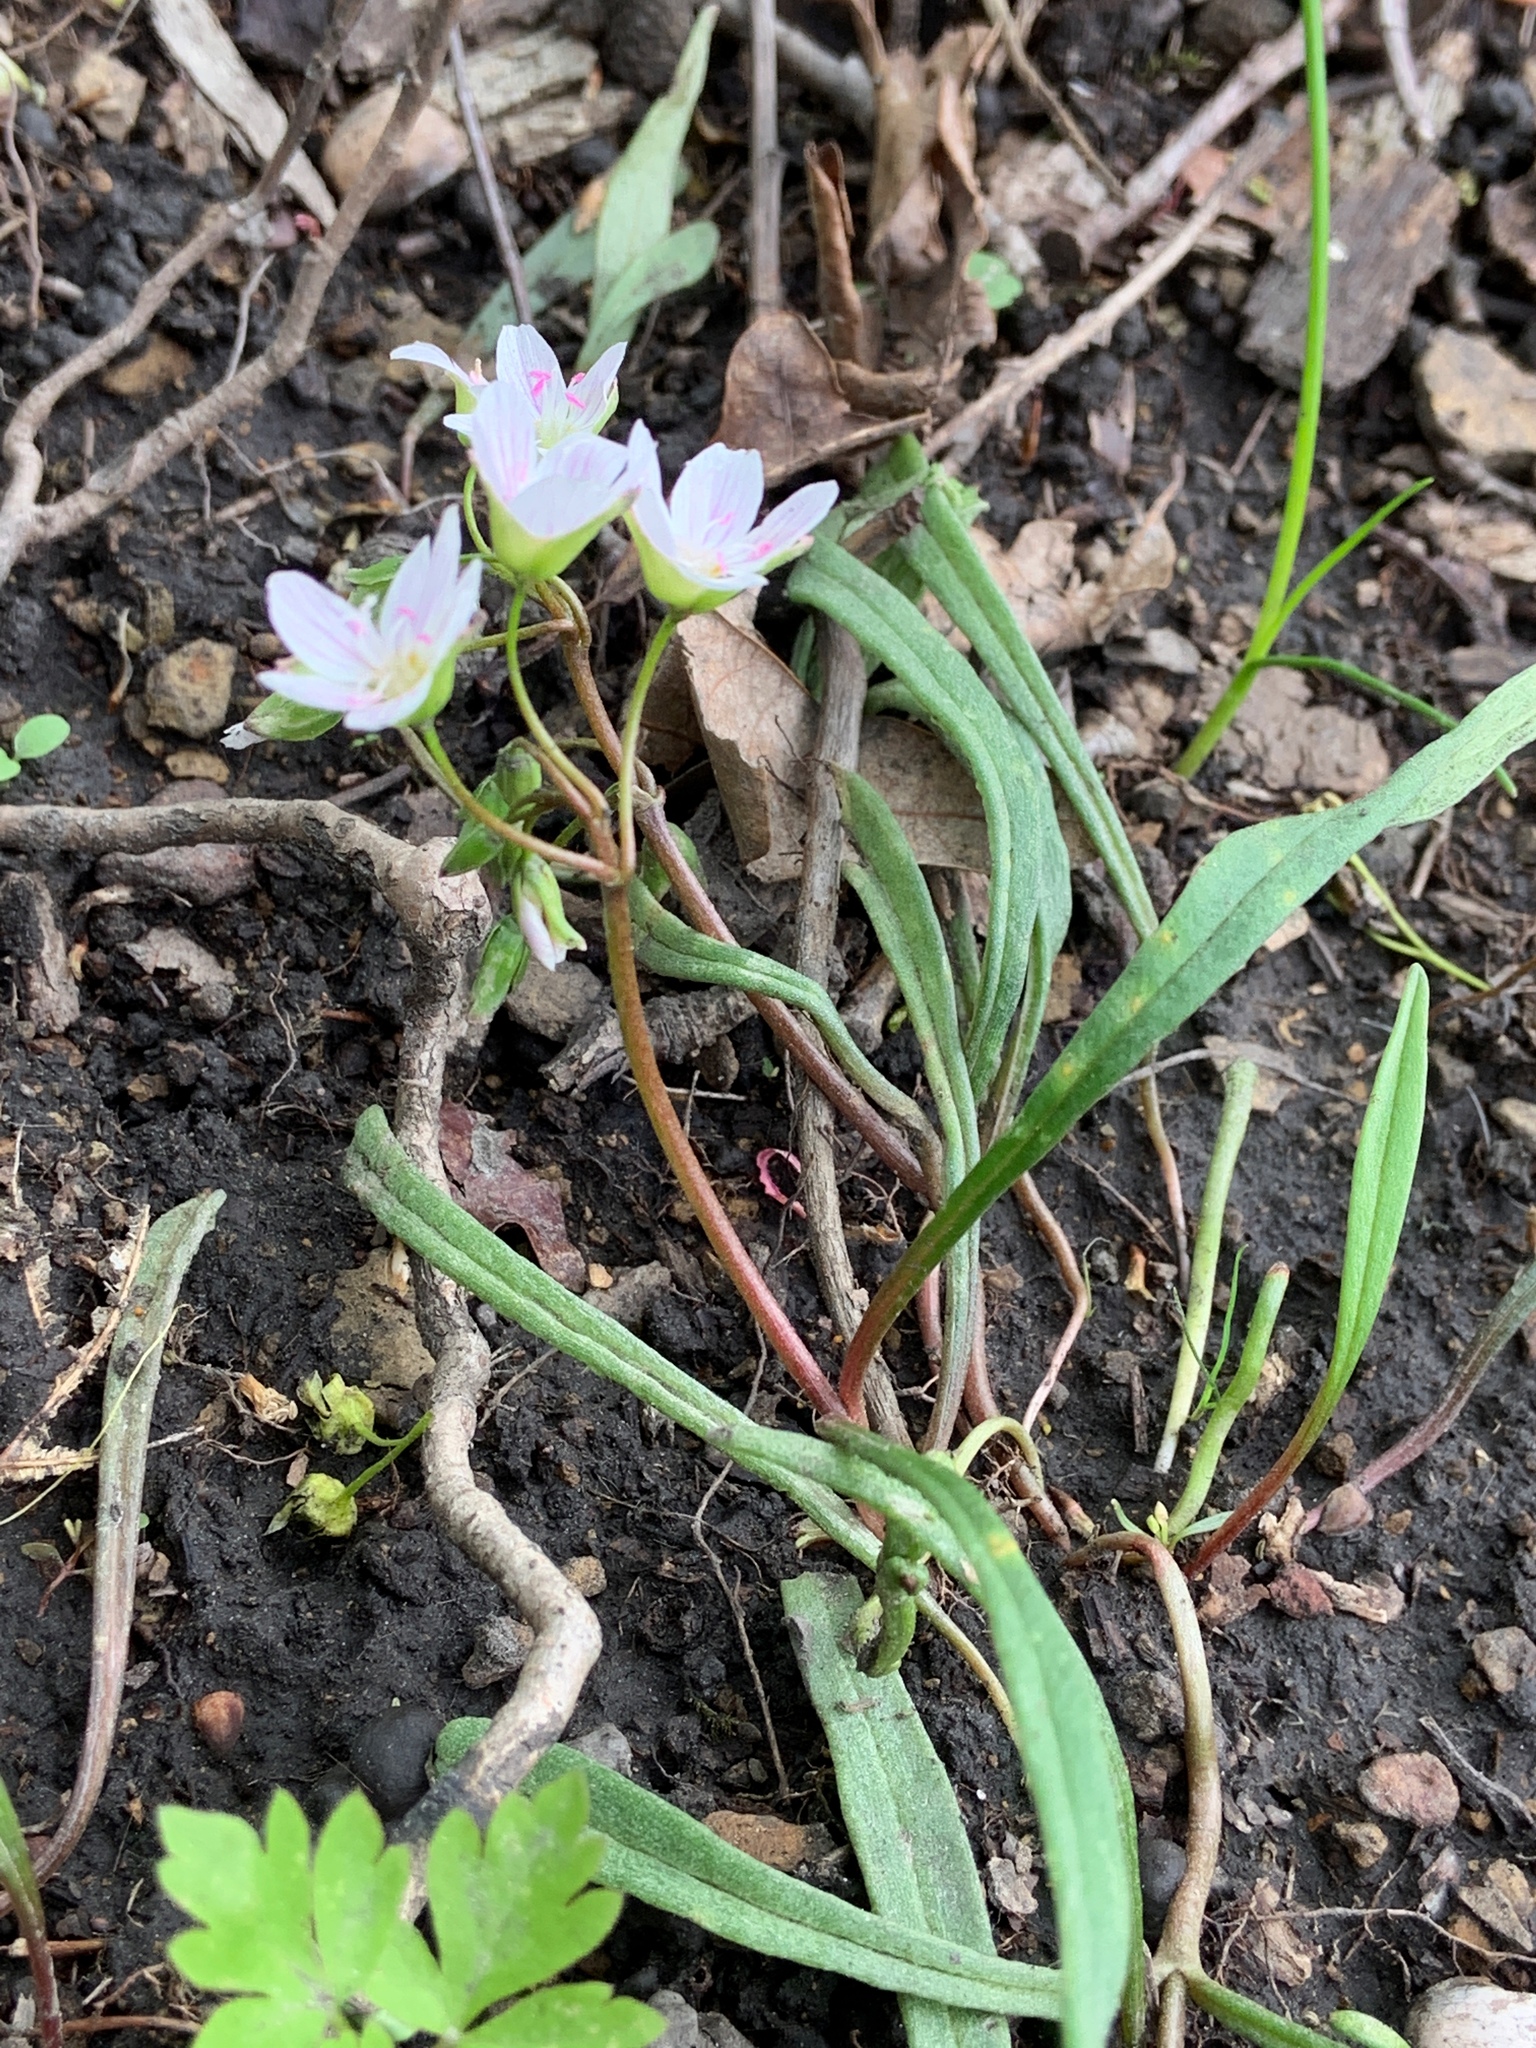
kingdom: Plantae
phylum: Tracheophyta
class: Magnoliopsida
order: Caryophyllales
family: Montiaceae
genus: Claytonia
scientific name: Claytonia virginica
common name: Virginia springbeauty
